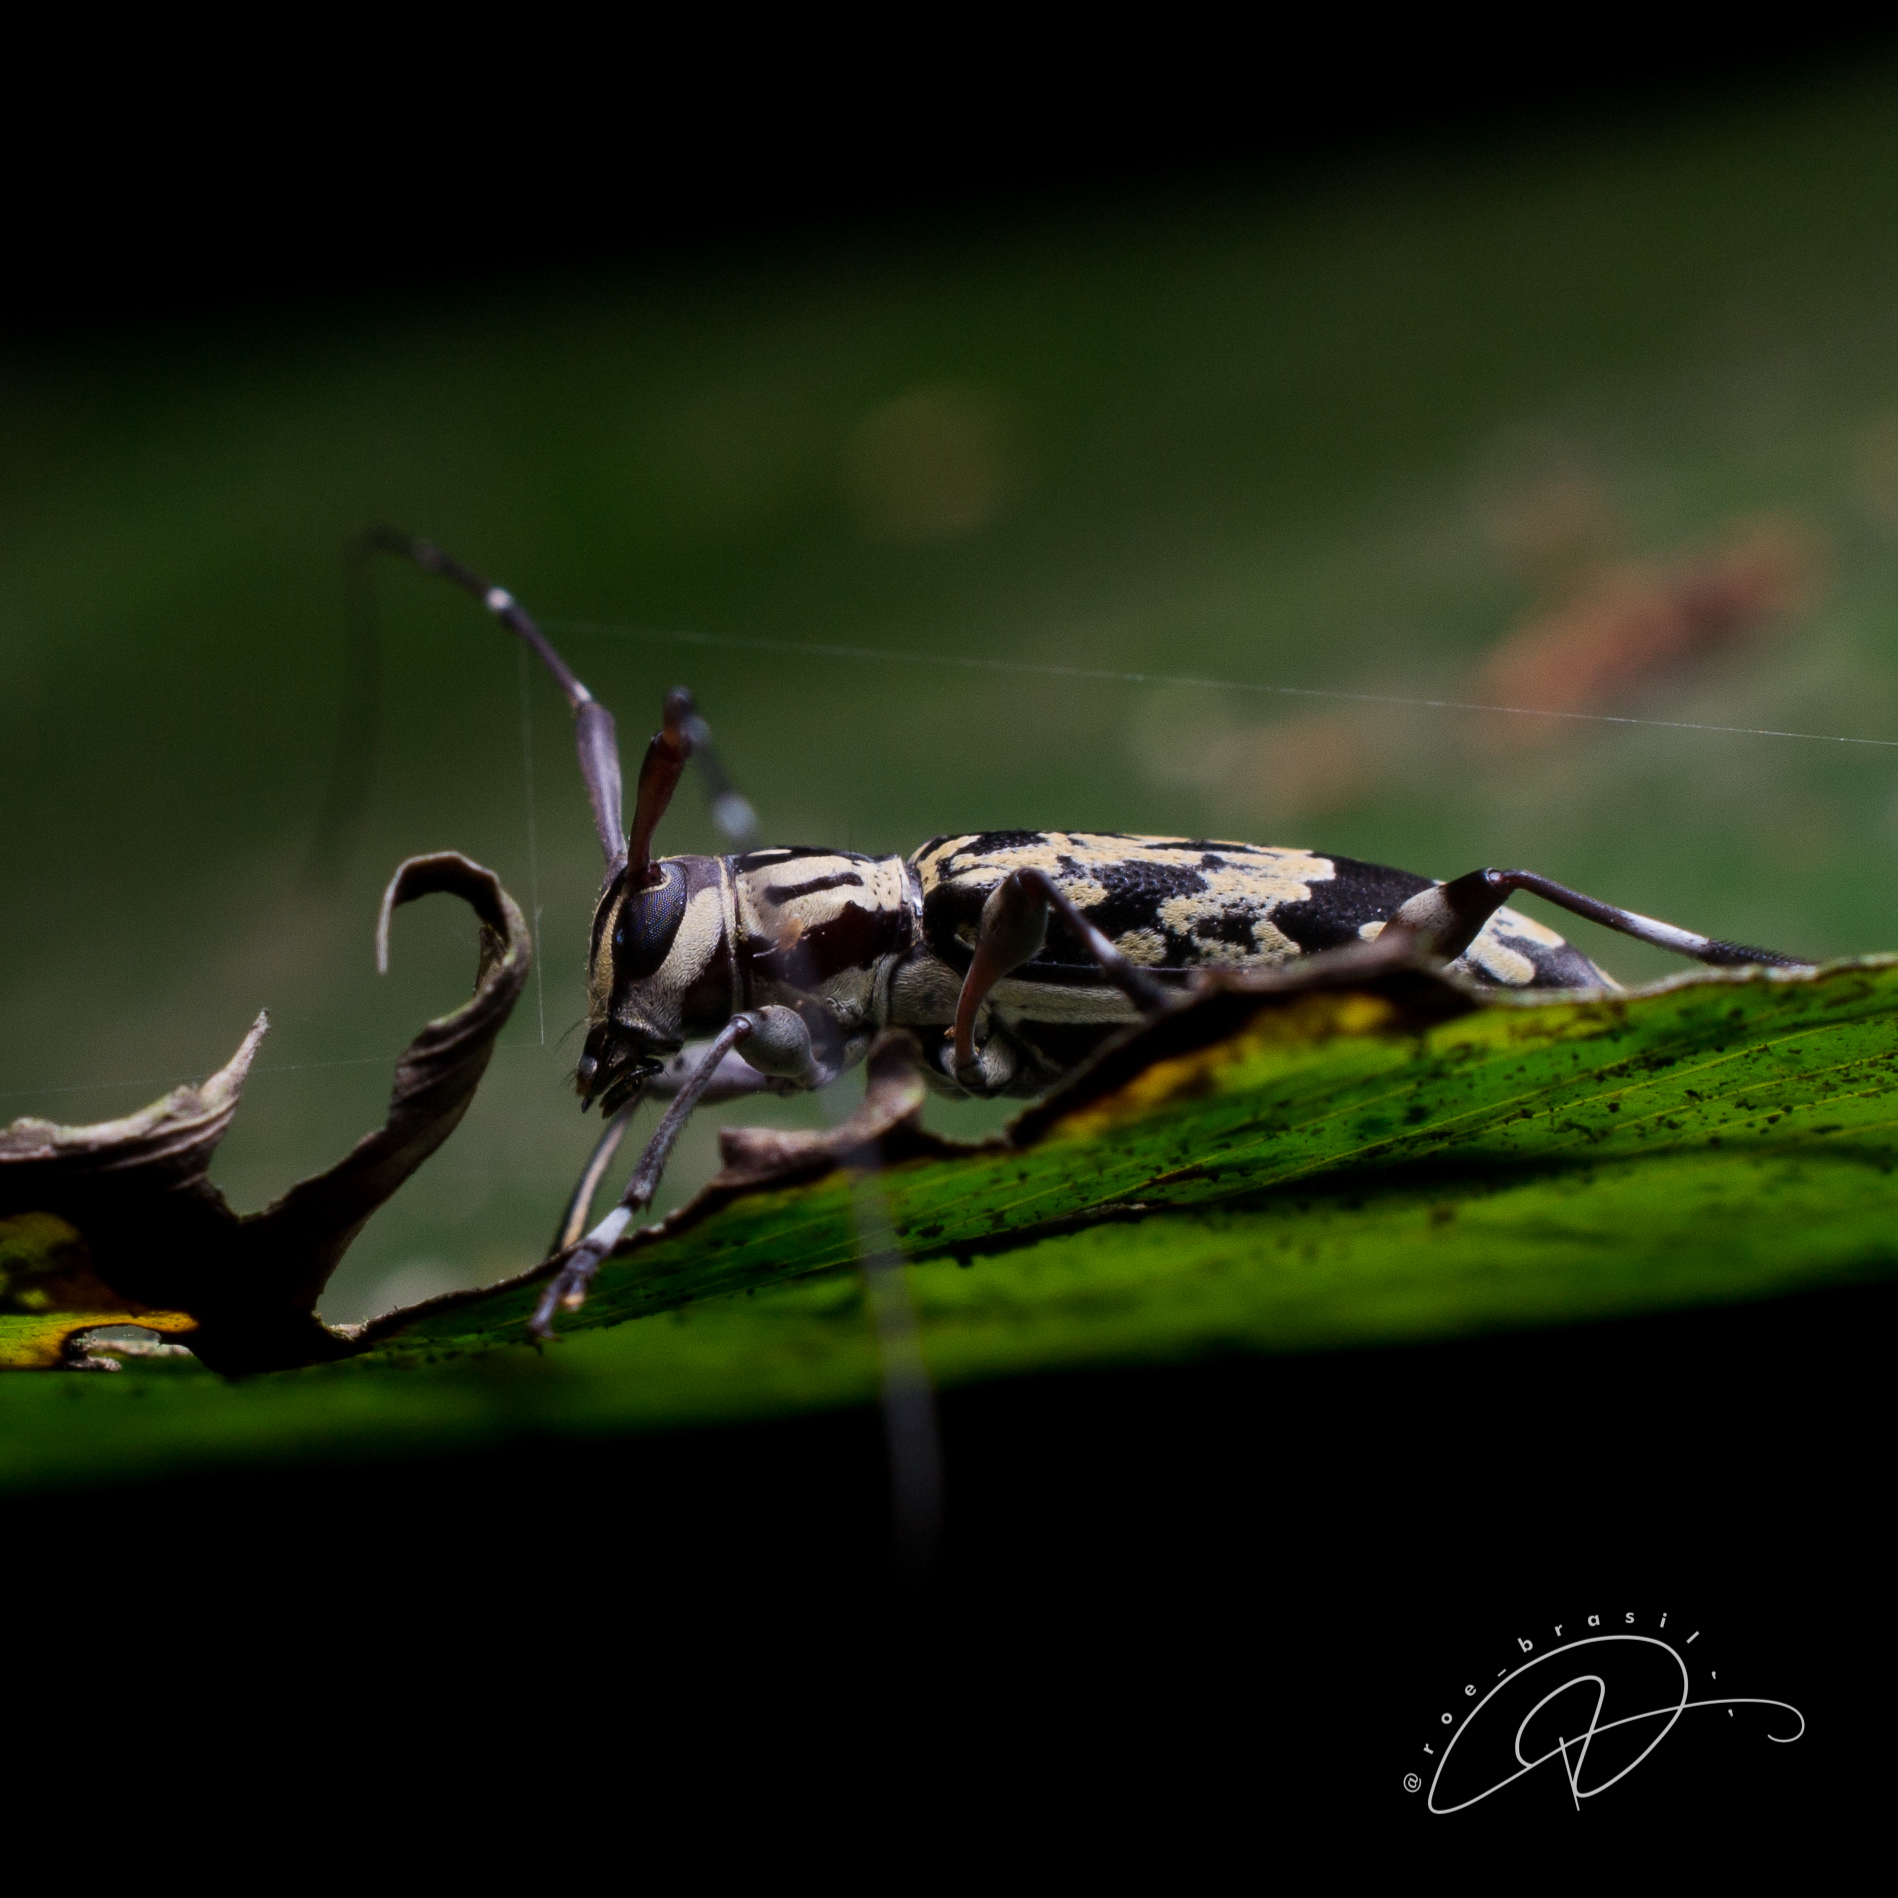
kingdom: Animalia
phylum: Arthropoda
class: Insecta
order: Coleoptera
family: Cerambycidae
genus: Eutrypanus
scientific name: Eutrypanus tessellatus
